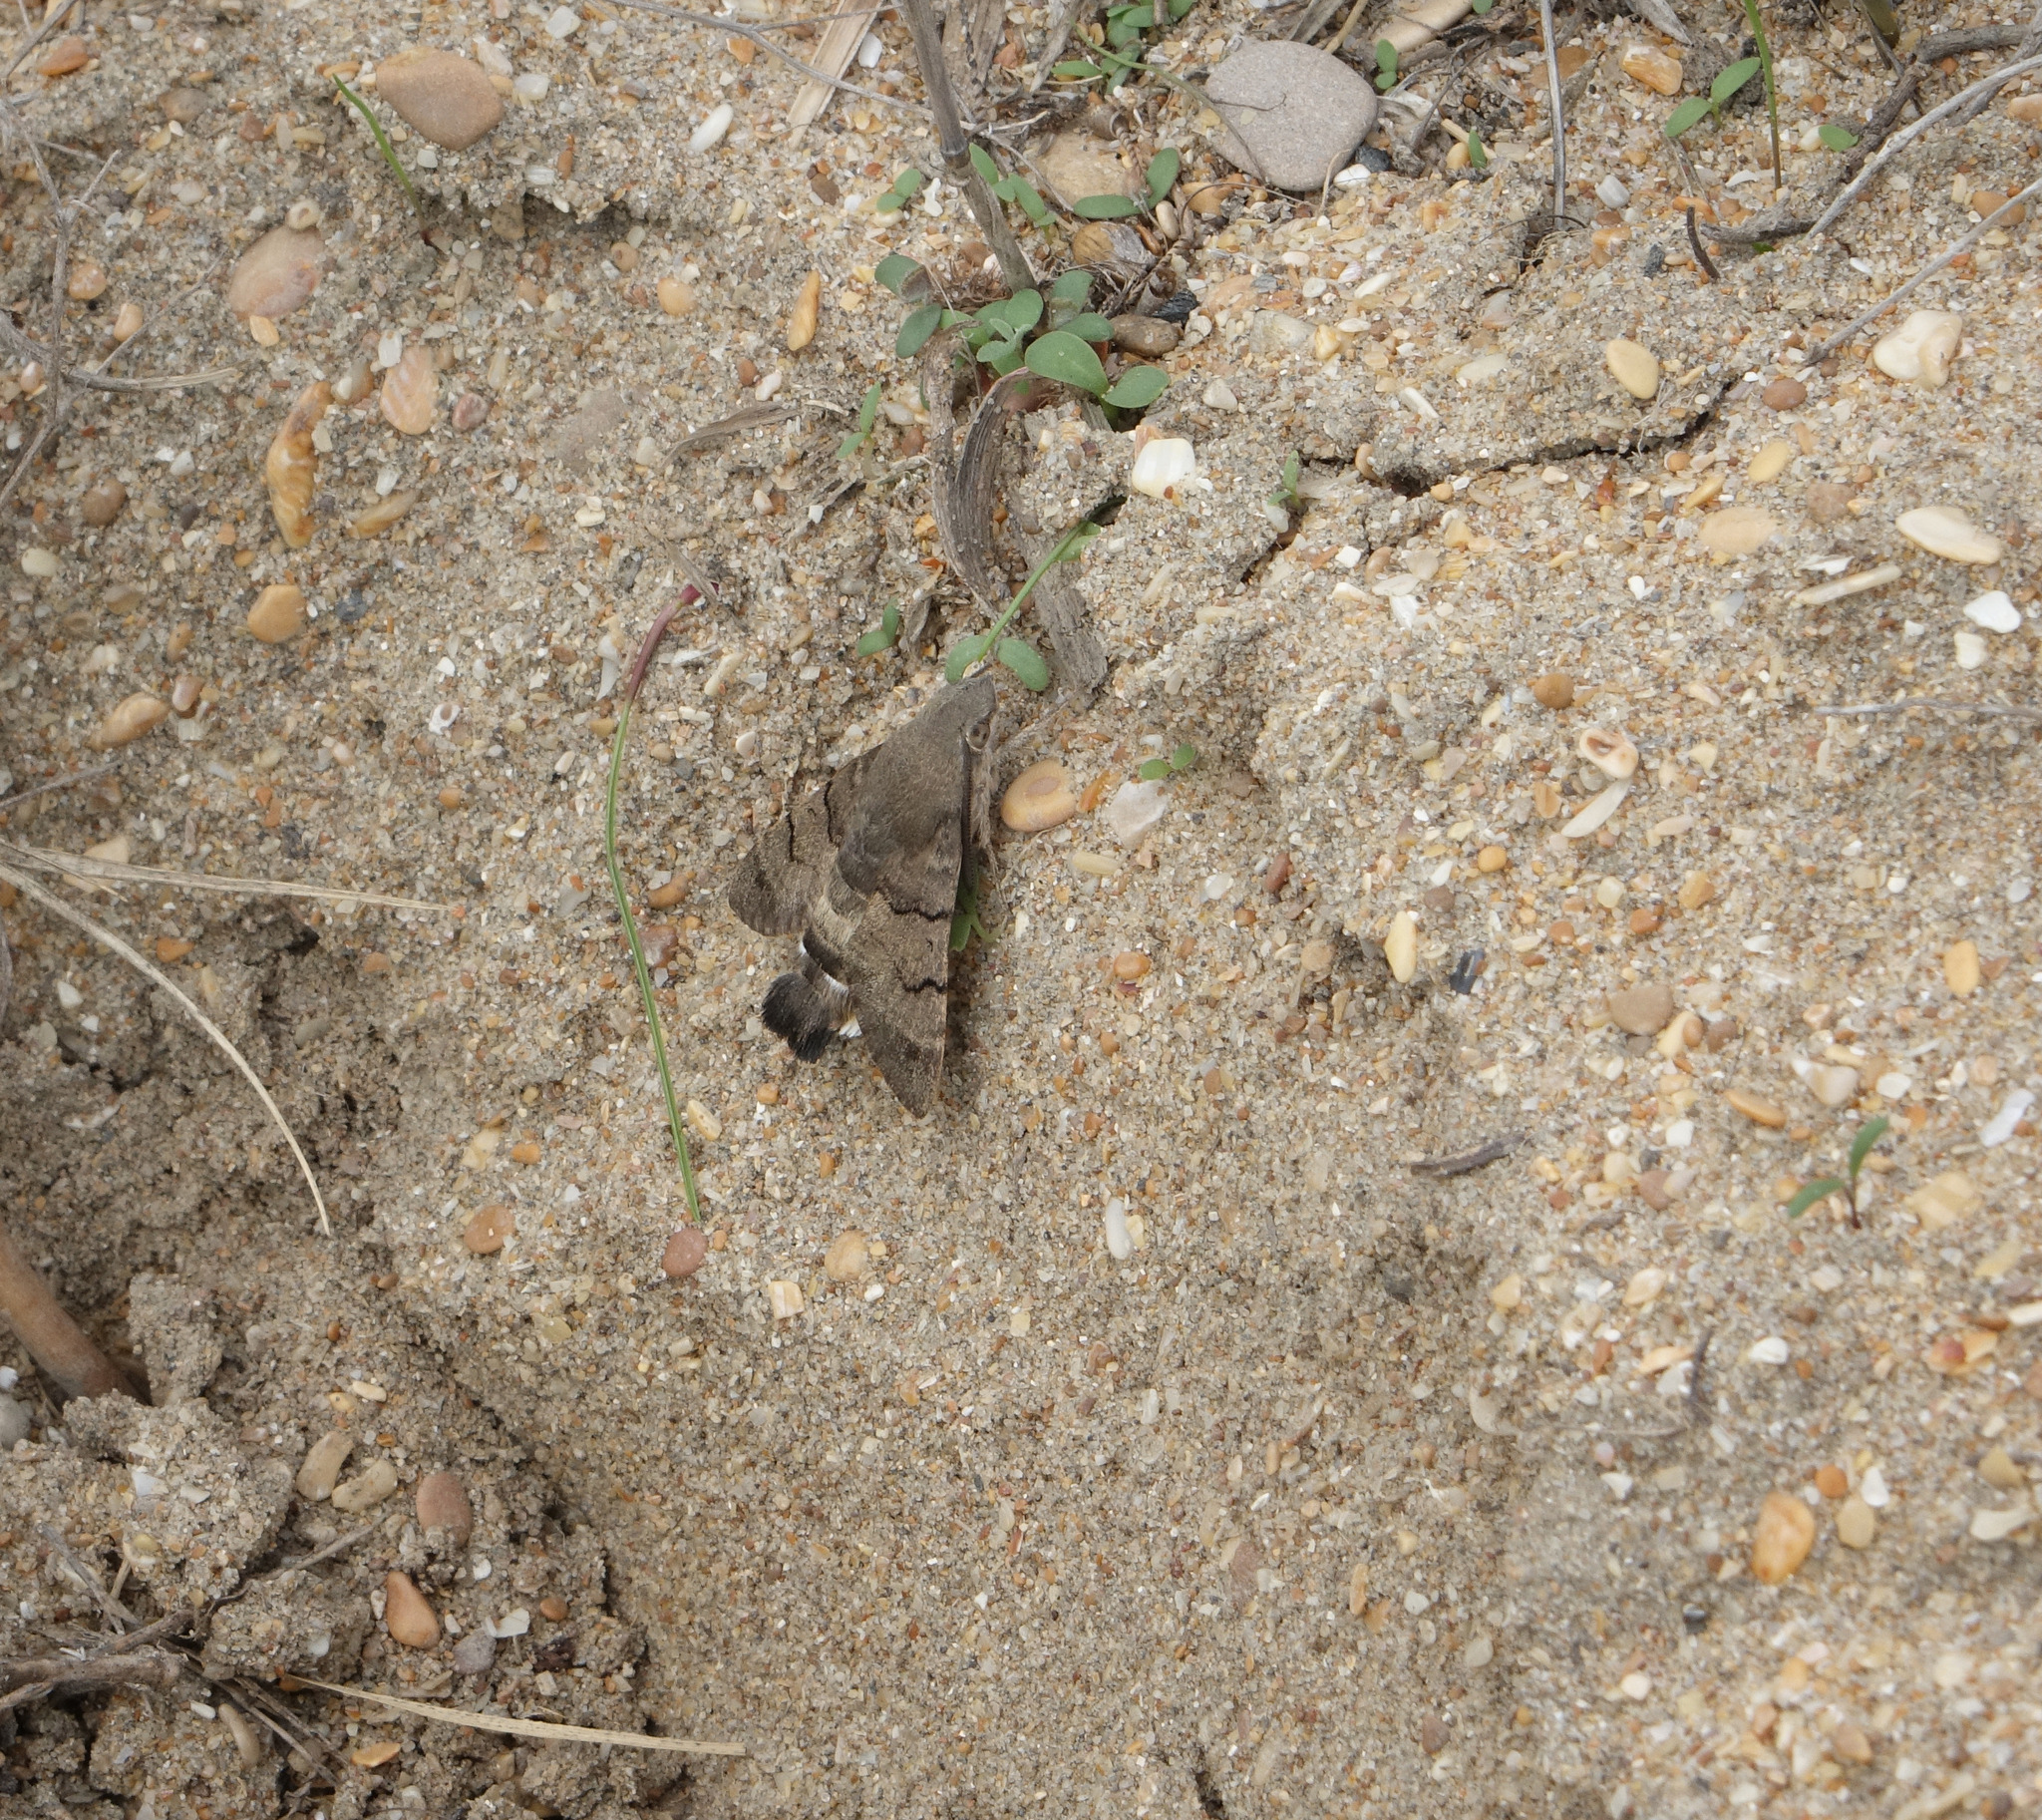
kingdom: Animalia
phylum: Arthropoda
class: Insecta
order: Lepidoptera
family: Sphingidae
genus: Macroglossum
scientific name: Macroglossum stellatarum
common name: Humming-bird hawk-moth
